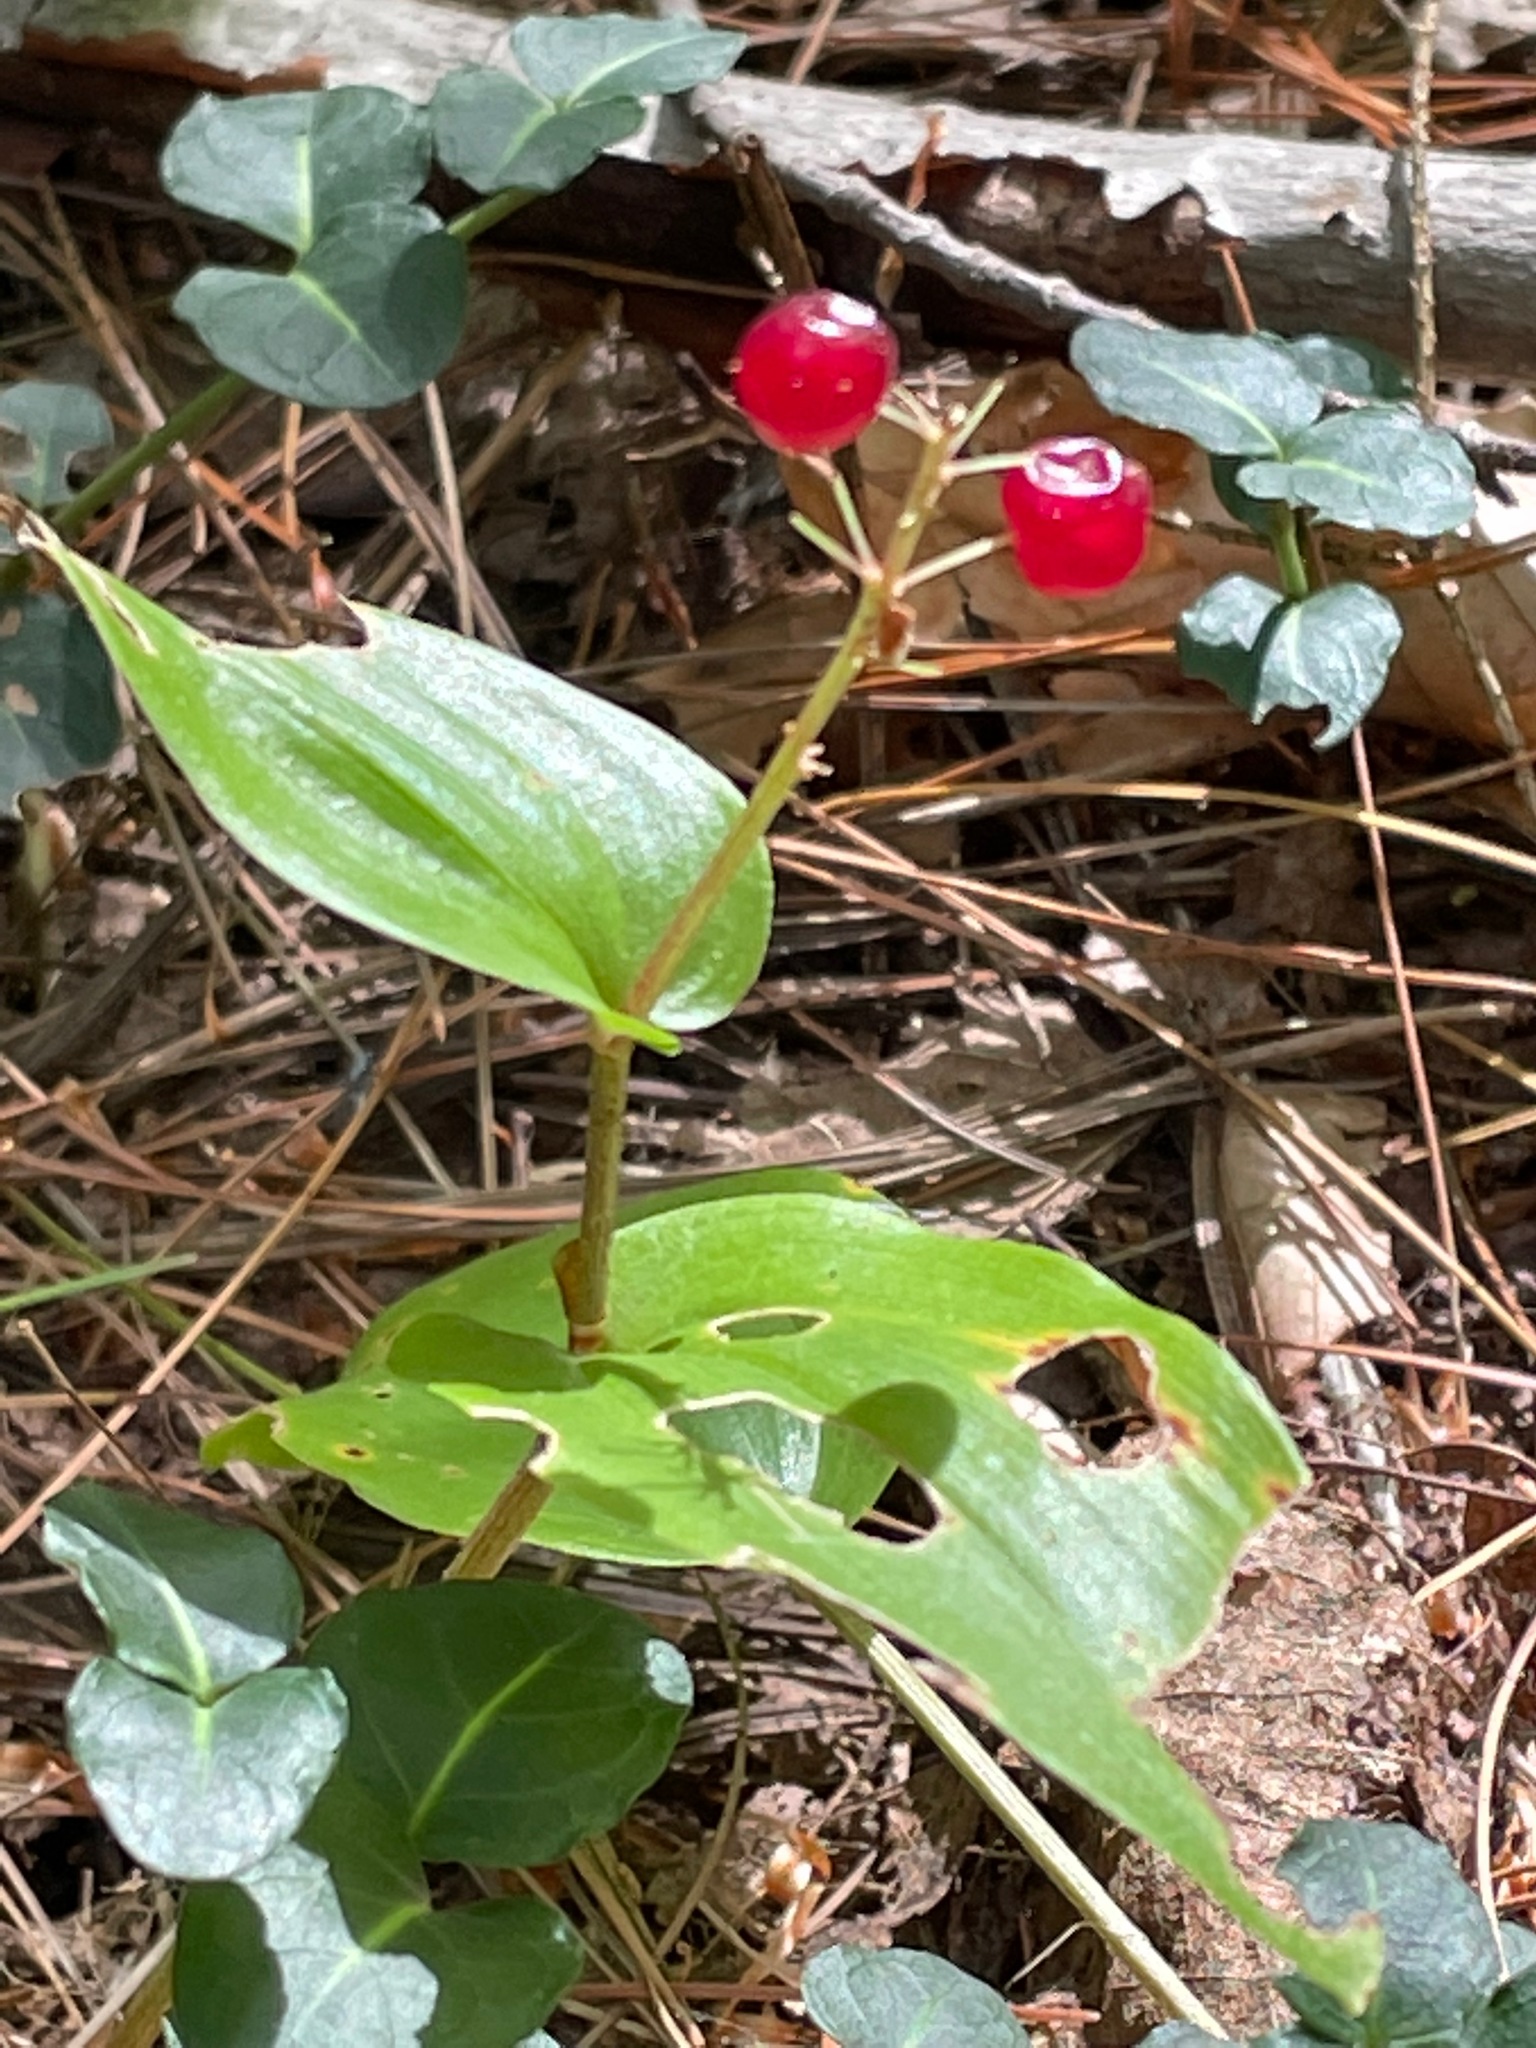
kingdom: Plantae
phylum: Tracheophyta
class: Liliopsida
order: Asparagales
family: Asparagaceae
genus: Maianthemum
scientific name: Maianthemum canadense
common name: False lily-of-the-valley
